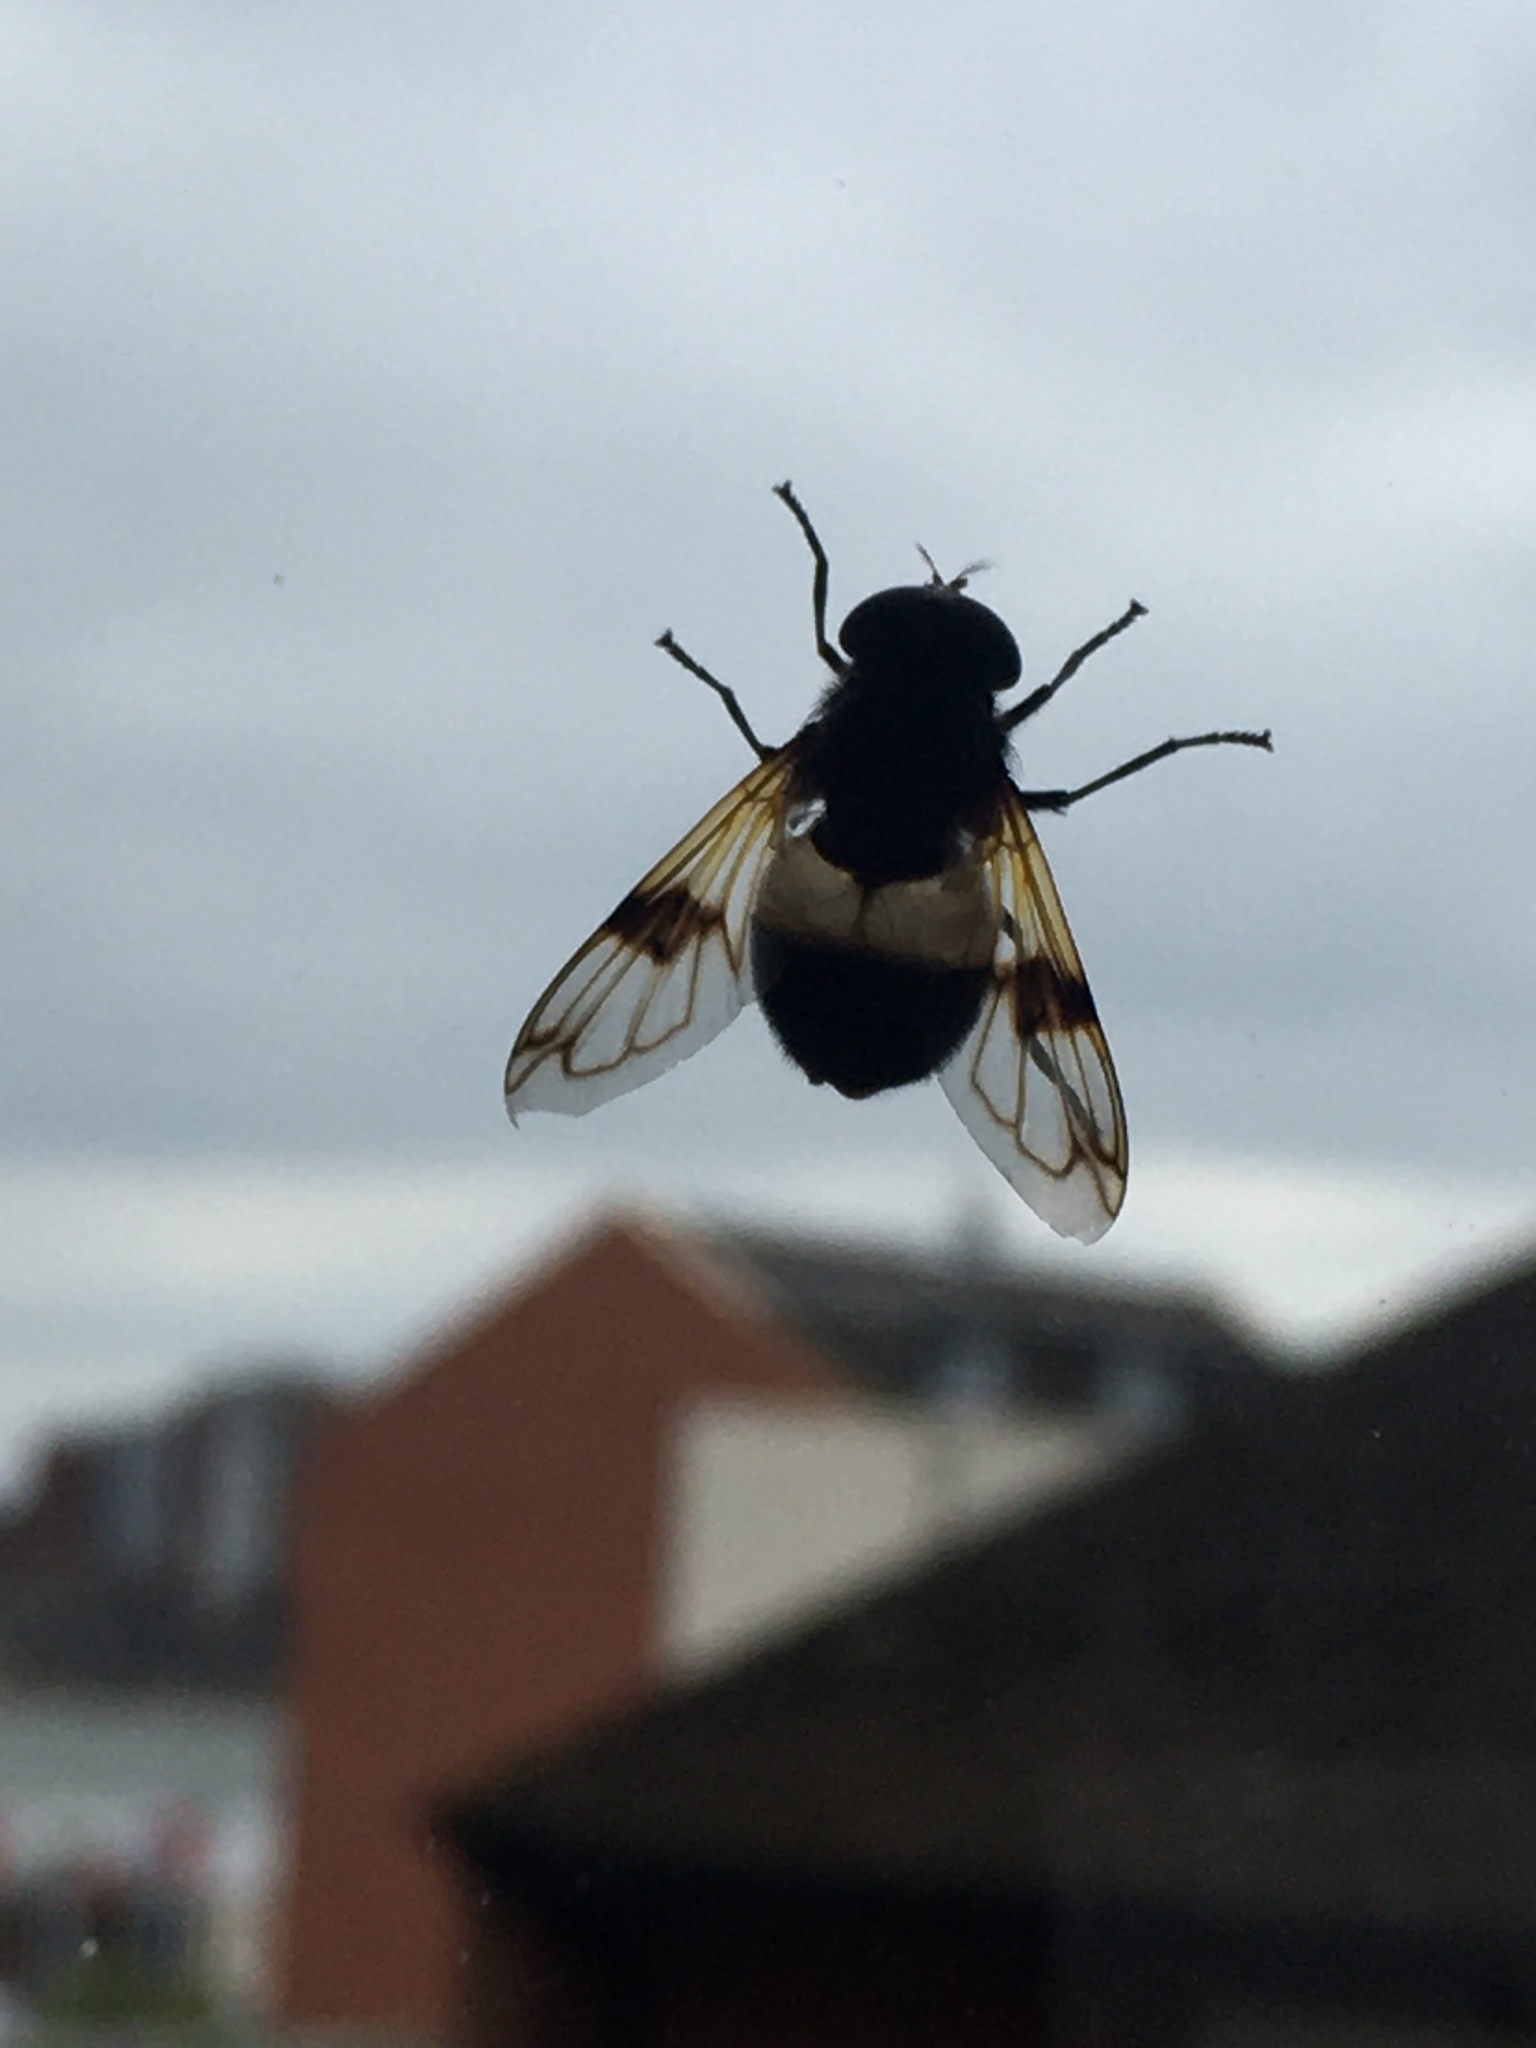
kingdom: Animalia
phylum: Arthropoda
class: Insecta
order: Diptera
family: Syrphidae
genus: Volucella
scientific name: Volucella pellucens
